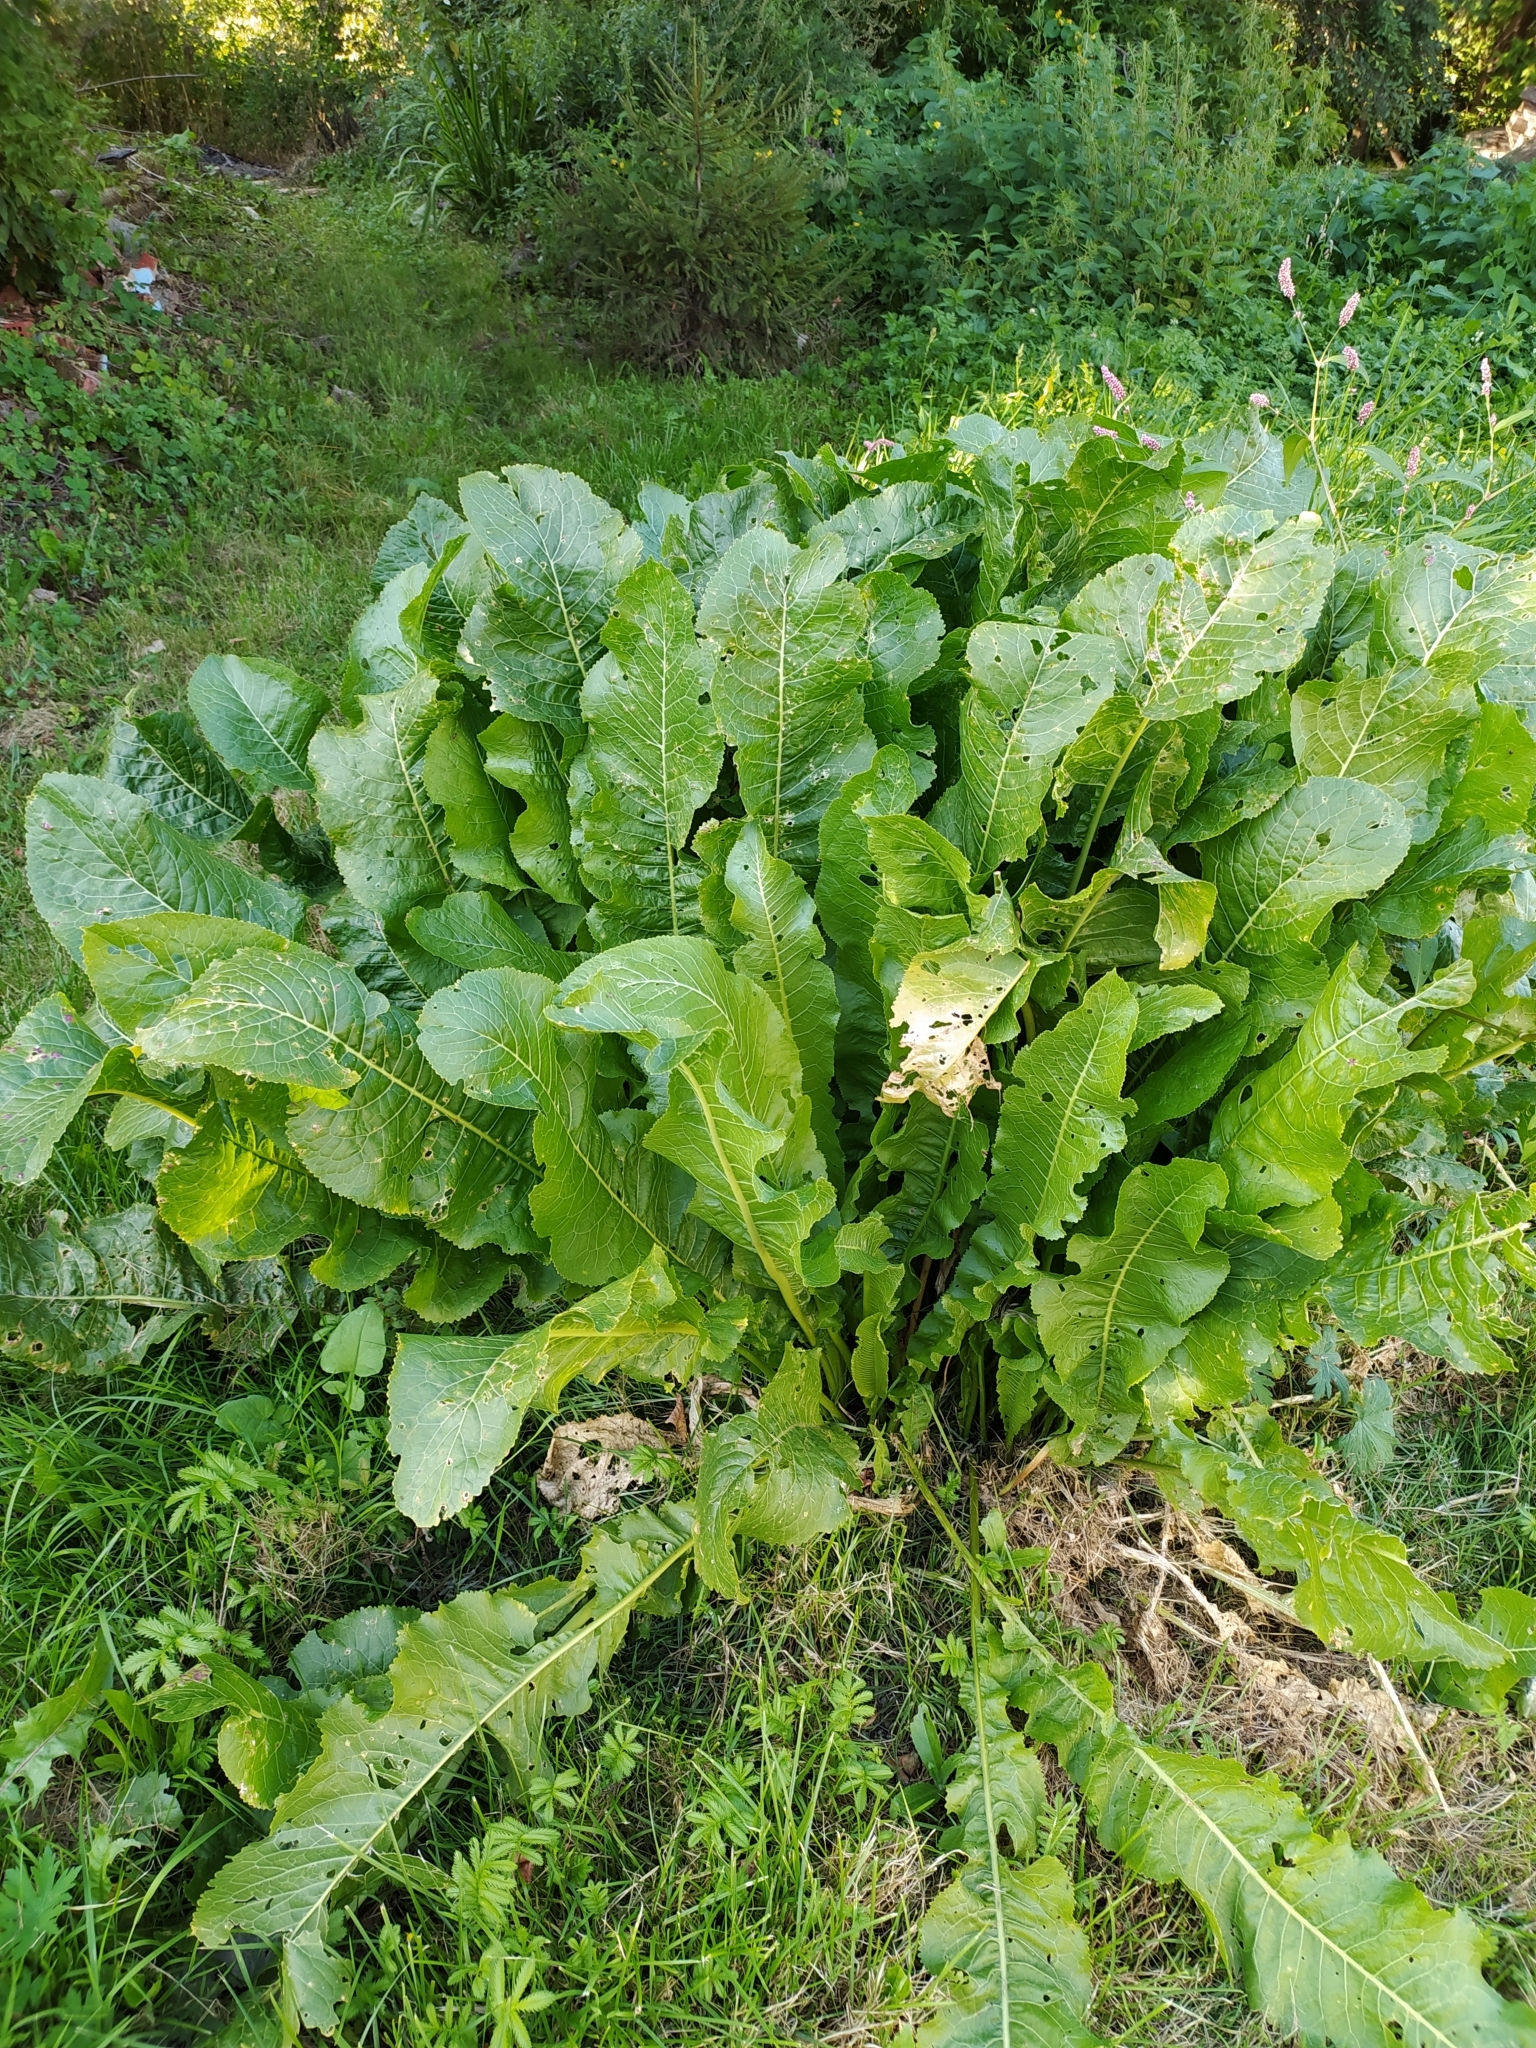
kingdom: Plantae
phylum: Tracheophyta
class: Magnoliopsida
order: Brassicales
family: Brassicaceae
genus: Armoracia
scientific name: Armoracia rusticana
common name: Horseradish
